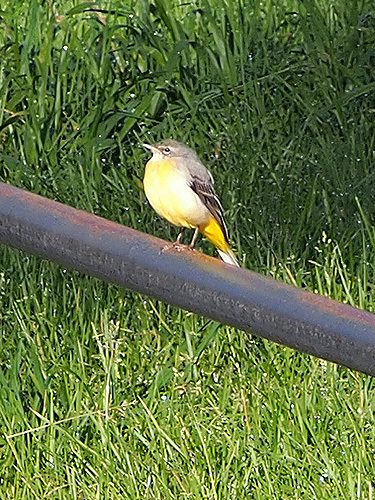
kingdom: Animalia
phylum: Chordata
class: Aves
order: Passeriformes
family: Motacillidae
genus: Motacilla
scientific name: Motacilla cinerea
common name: Grey wagtail
